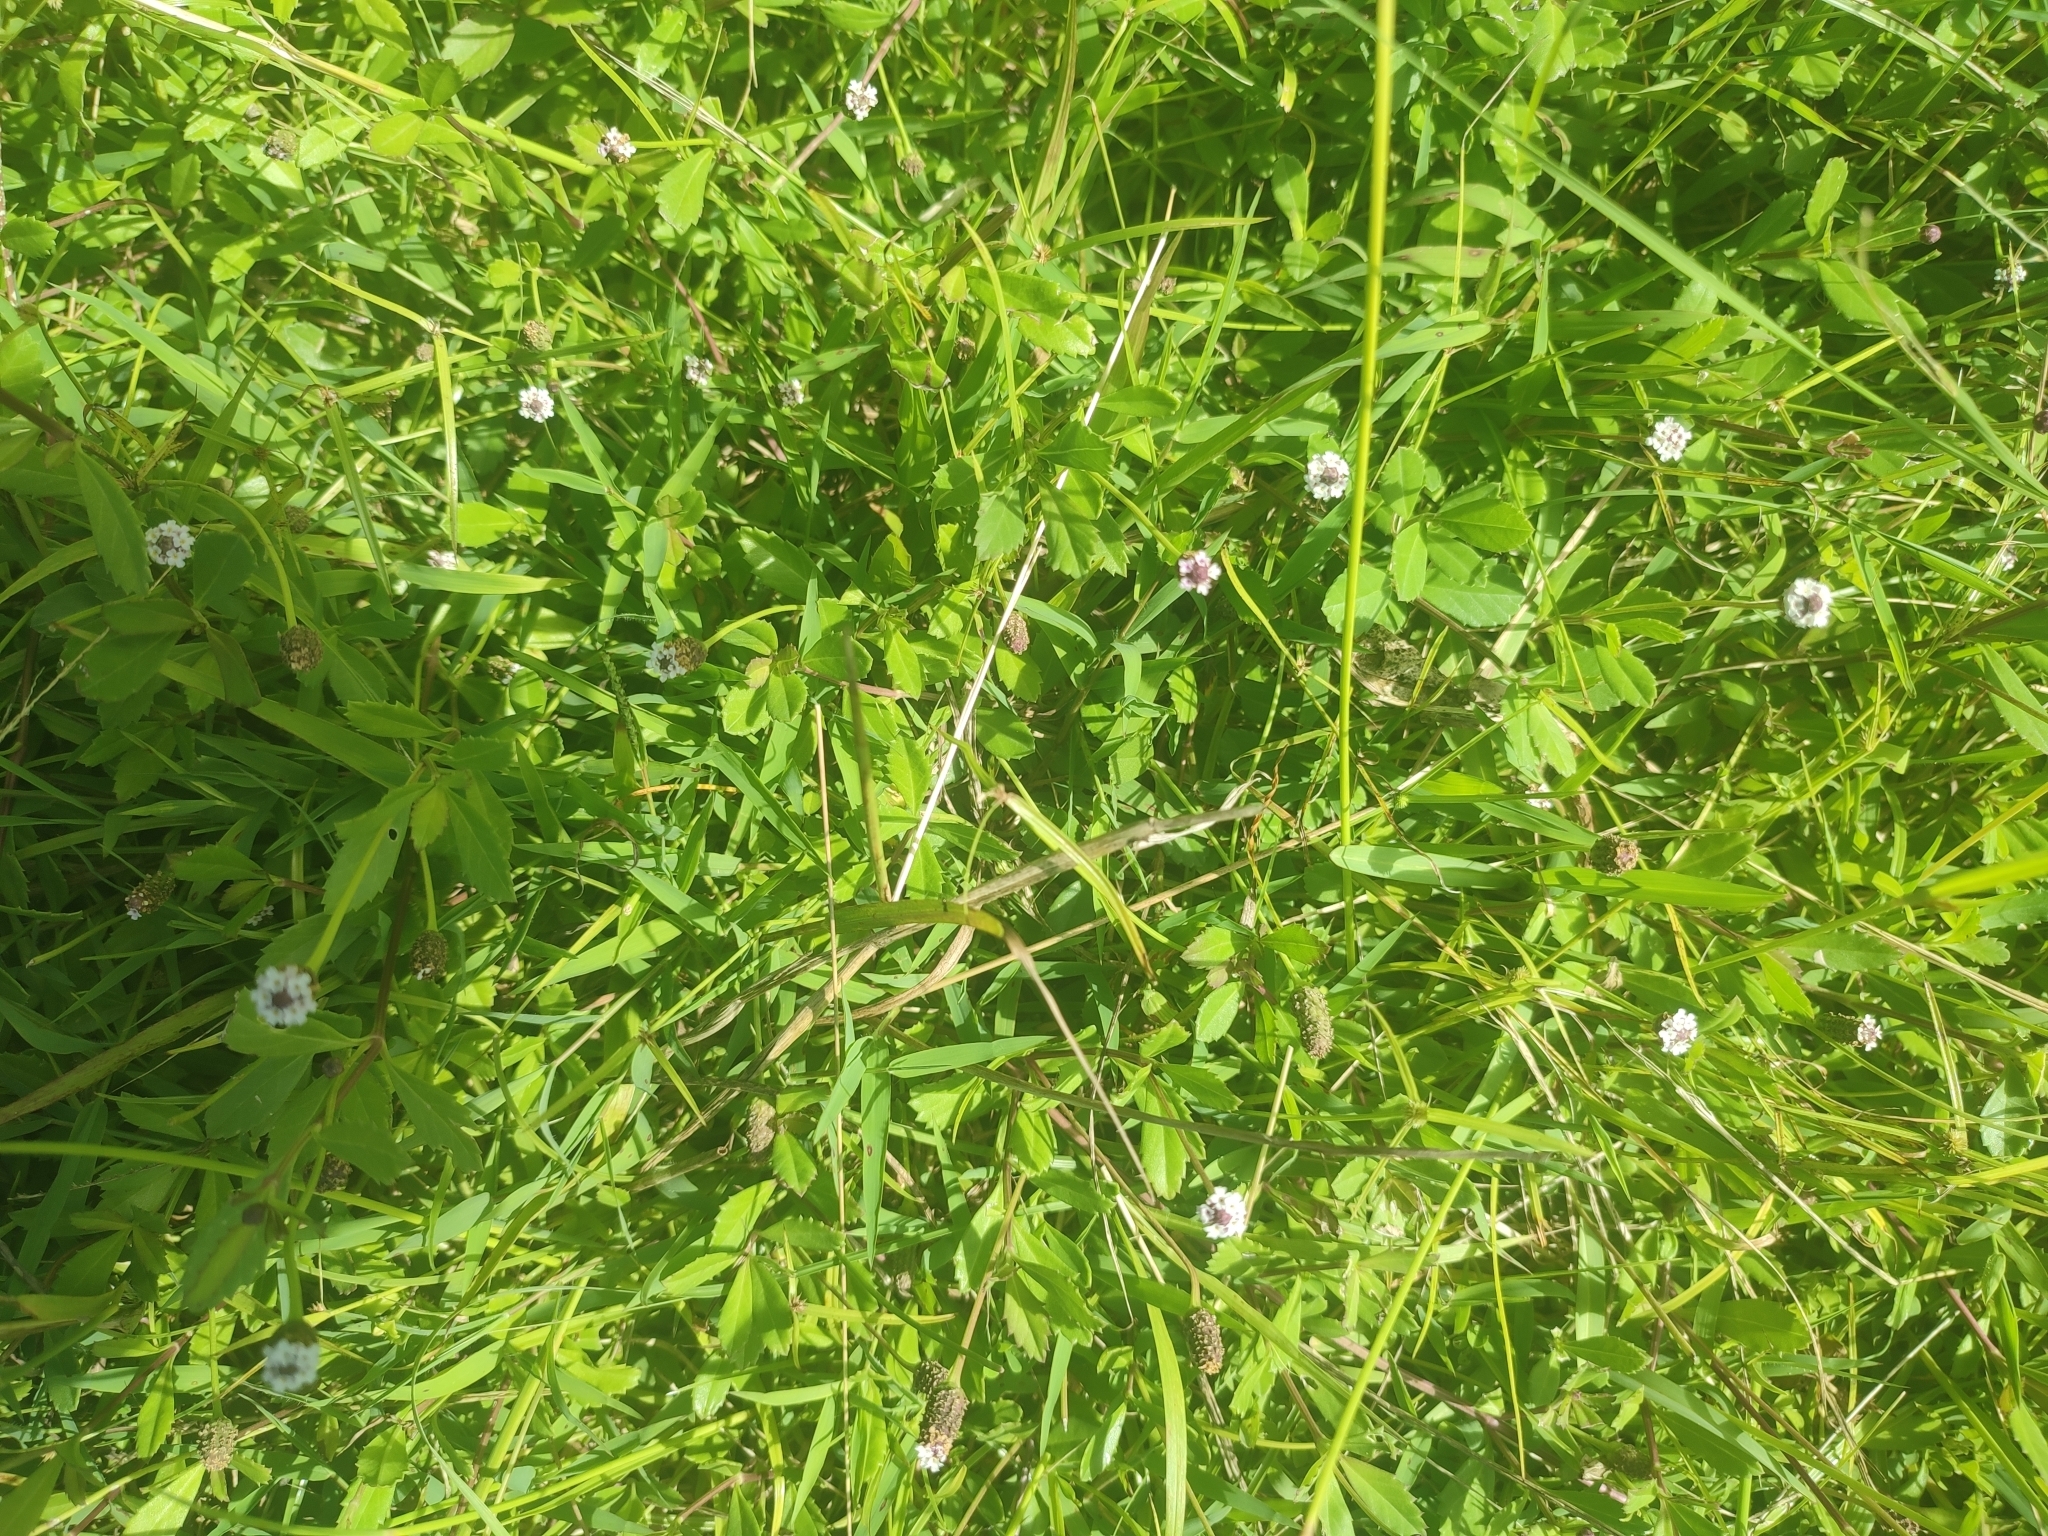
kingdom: Plantae
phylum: Tracheophyta
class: Magnoliopsida
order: Lamiales
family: Verbenaceae
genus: Phyla
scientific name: Phyla nodiflora
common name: Frogfruit
